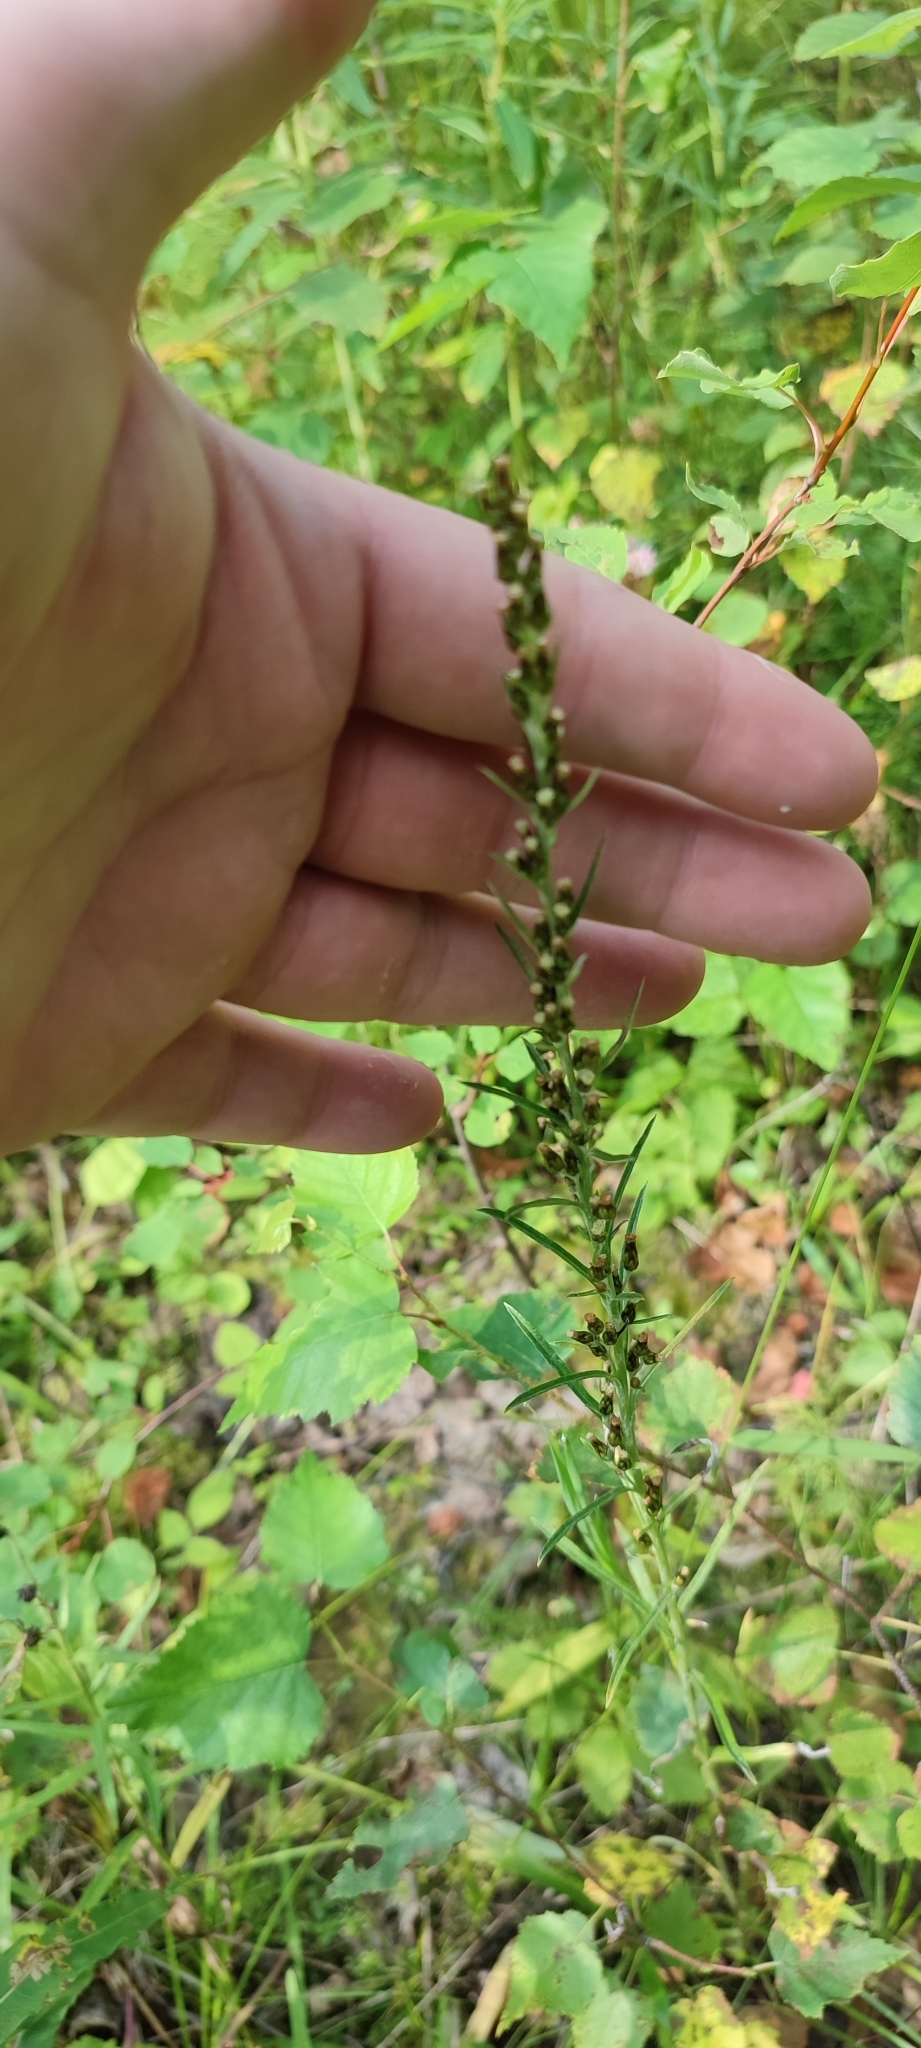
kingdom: Plantae
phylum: Tracheophyta
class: Magnoliopsida
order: Asterales
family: Asteraceae
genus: Omalotheca
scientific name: Omalotheca sylvatica
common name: Heath cudweed
